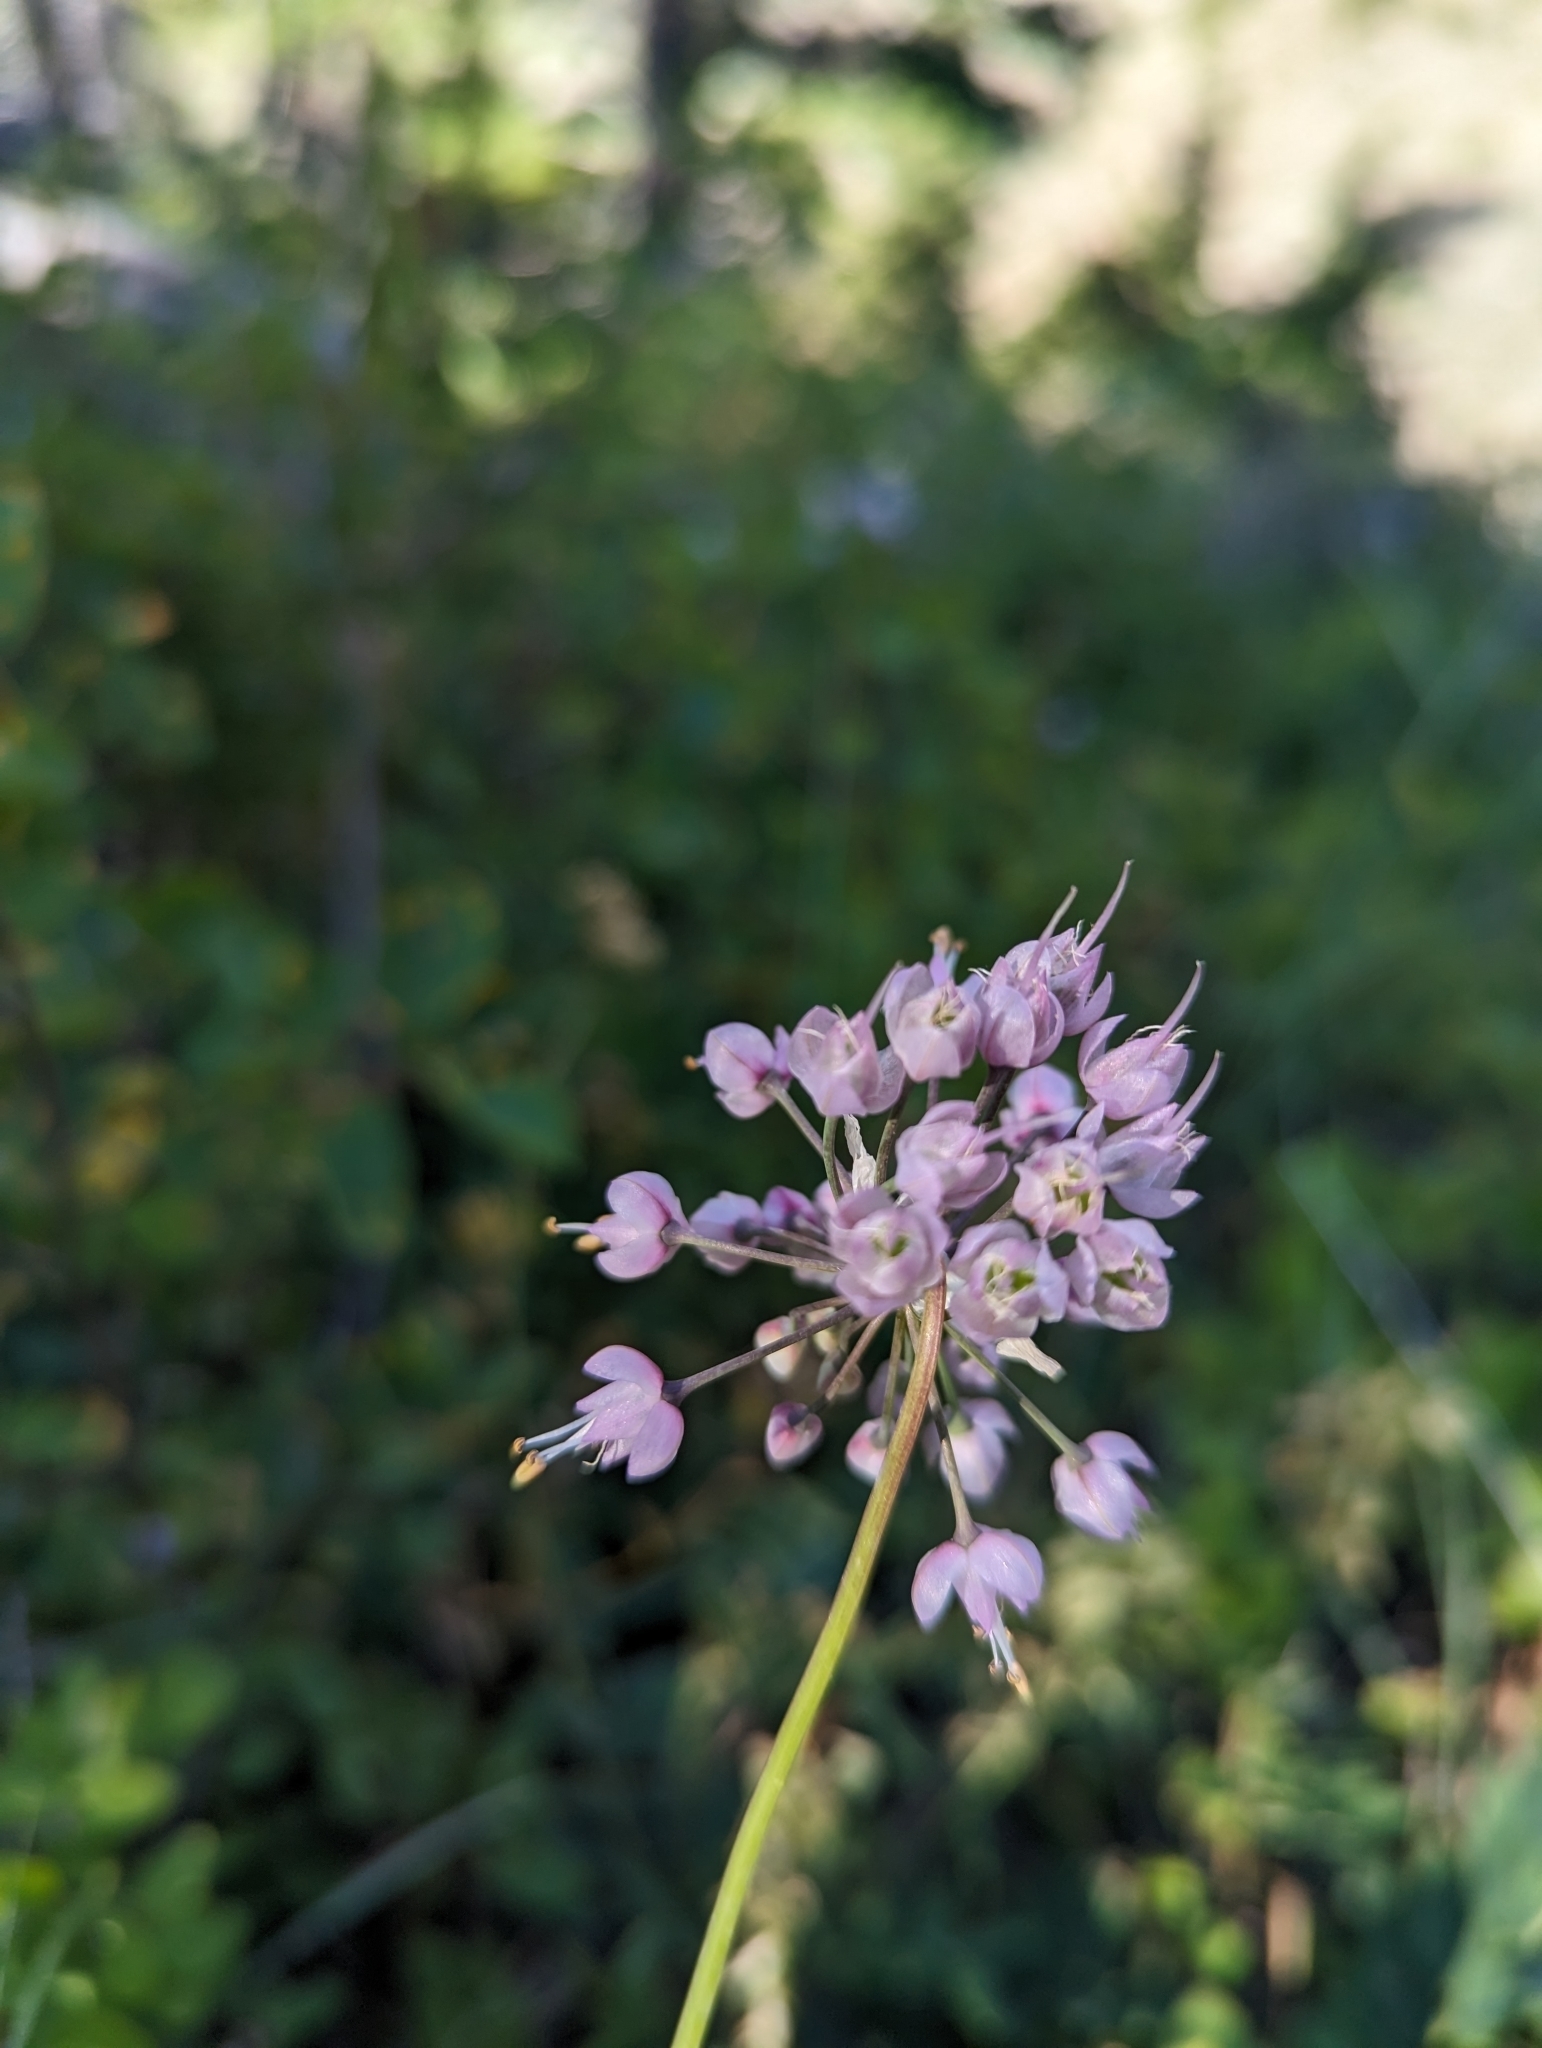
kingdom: Plantae
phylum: Tracheophyta
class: Liliopsida
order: Asparagales
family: Amaryllidaceae
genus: Allium
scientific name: Allium cernuum
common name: Nodding onion
